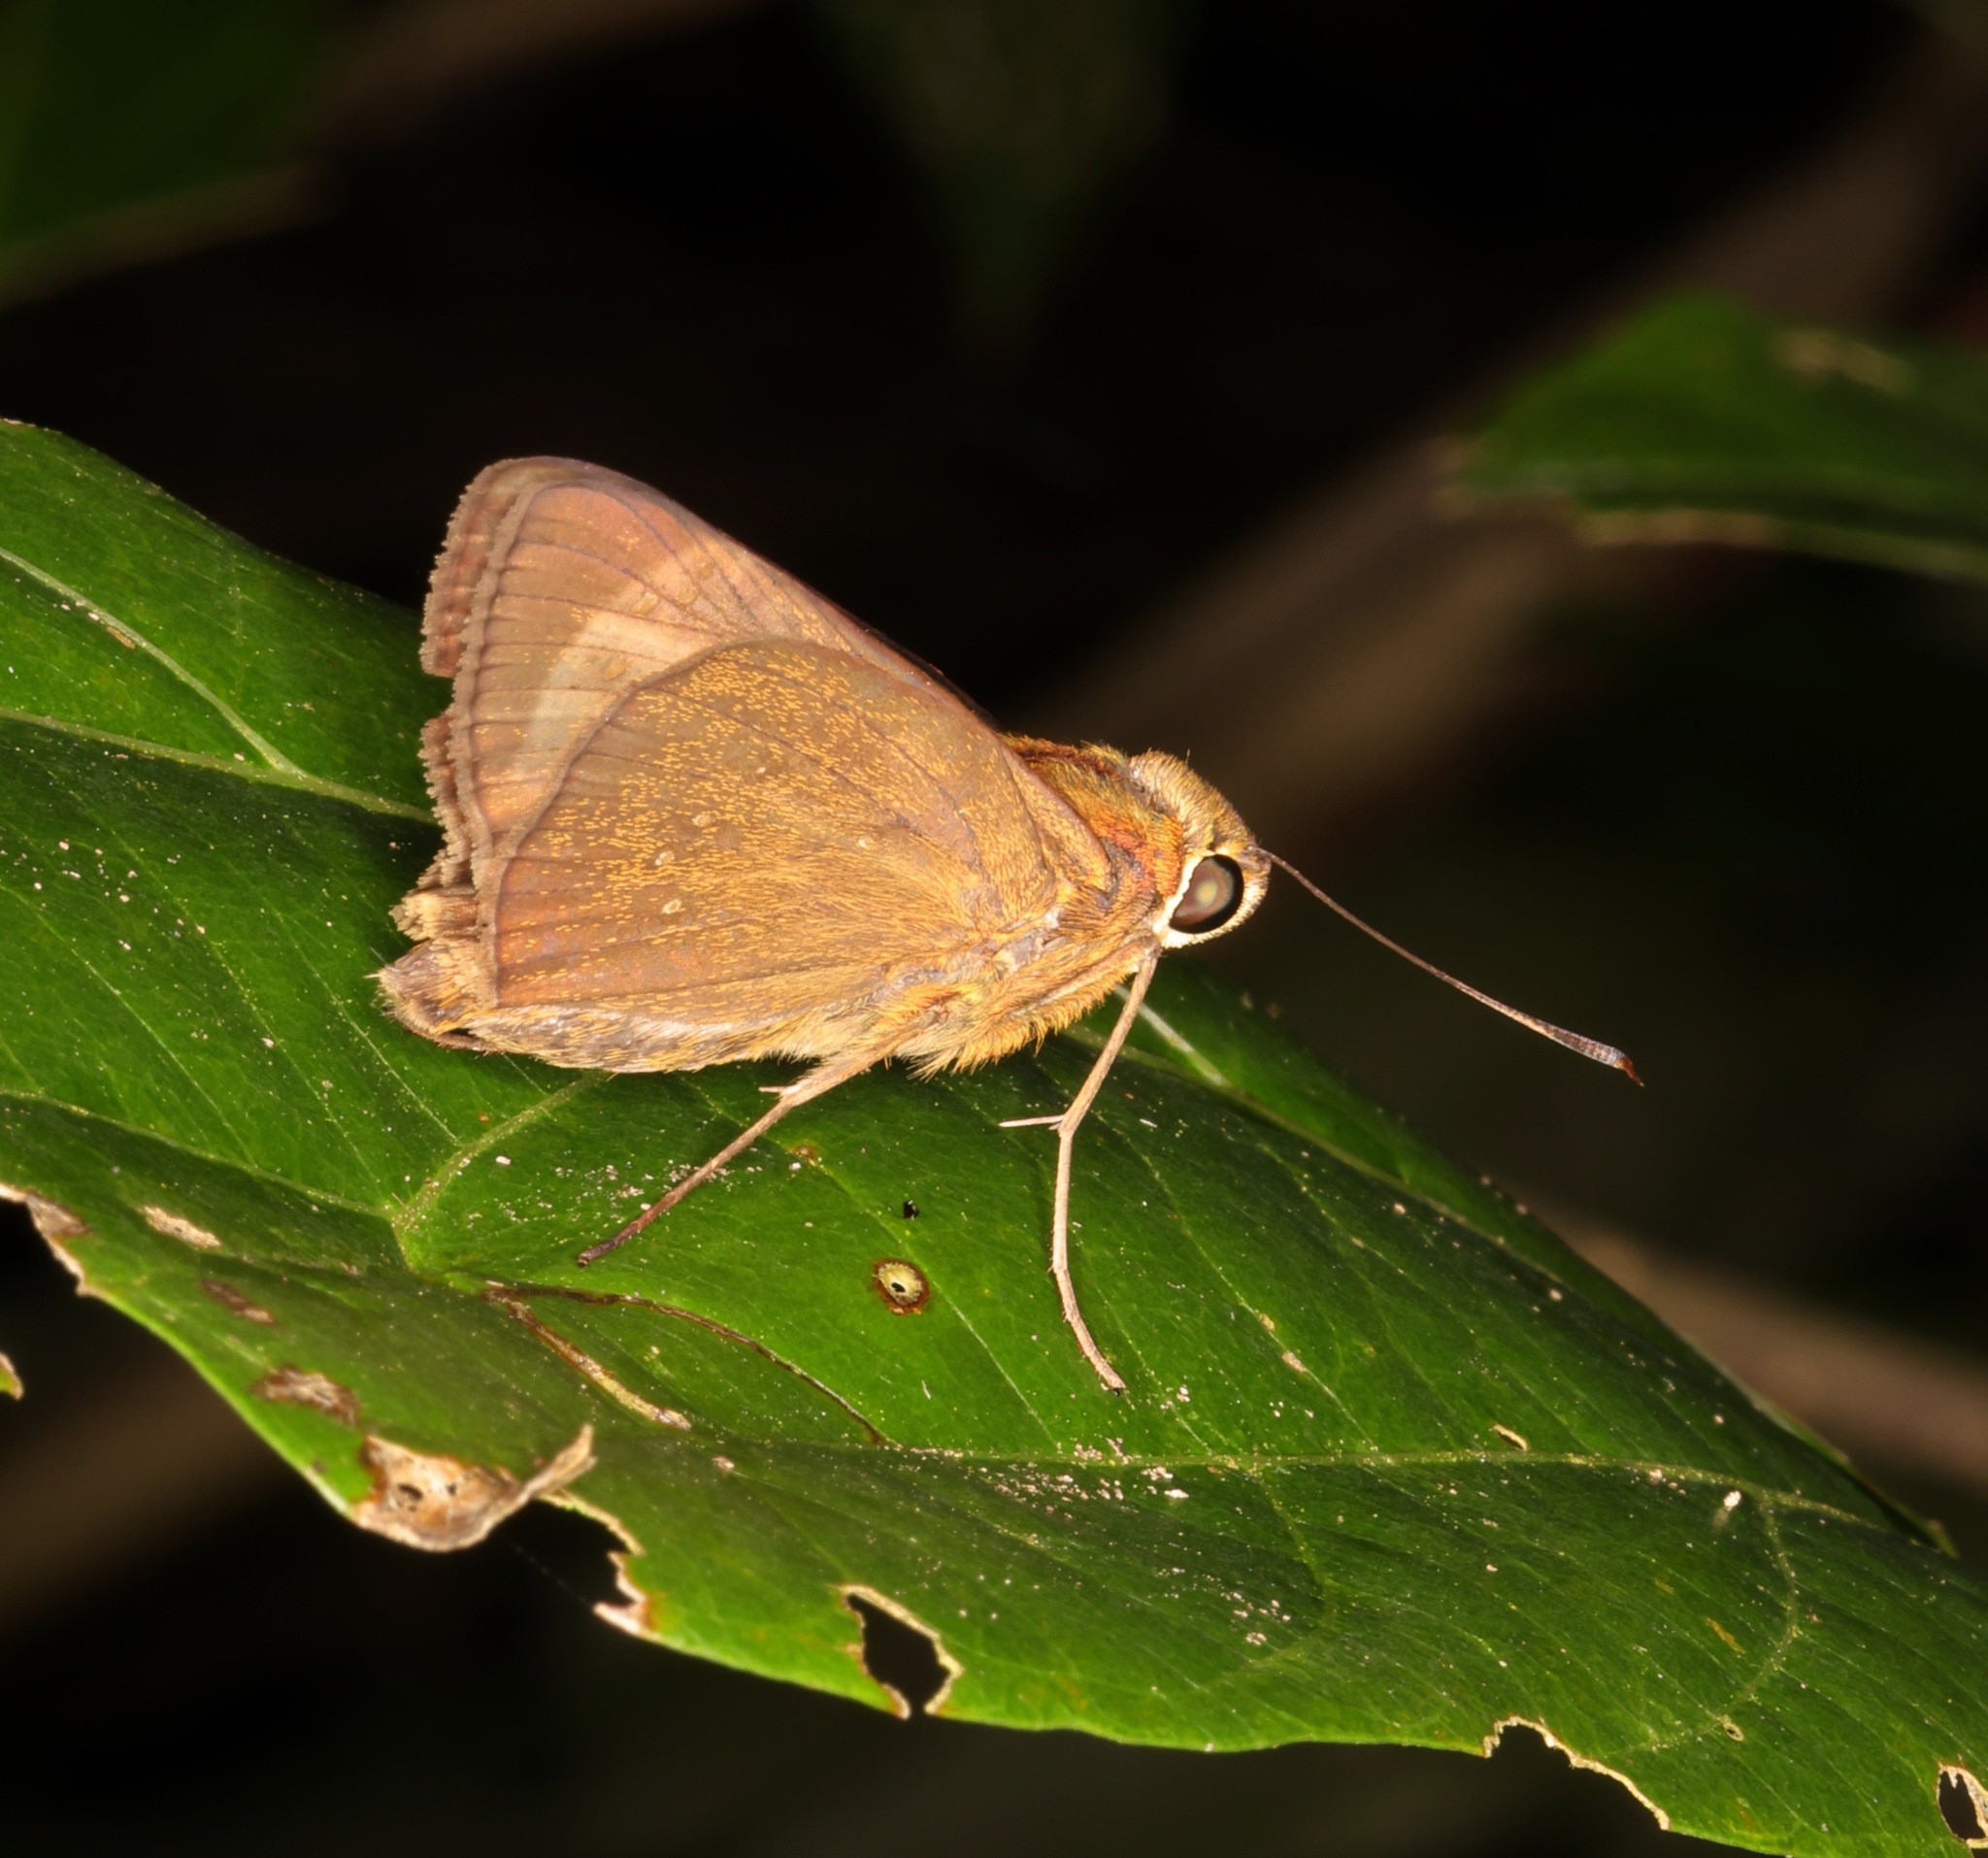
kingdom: Animalia
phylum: Arthropoda
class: Insecta
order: Lepidoptera
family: Hesperiidae
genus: Pelopidas
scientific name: Pelopidas conjuncta
